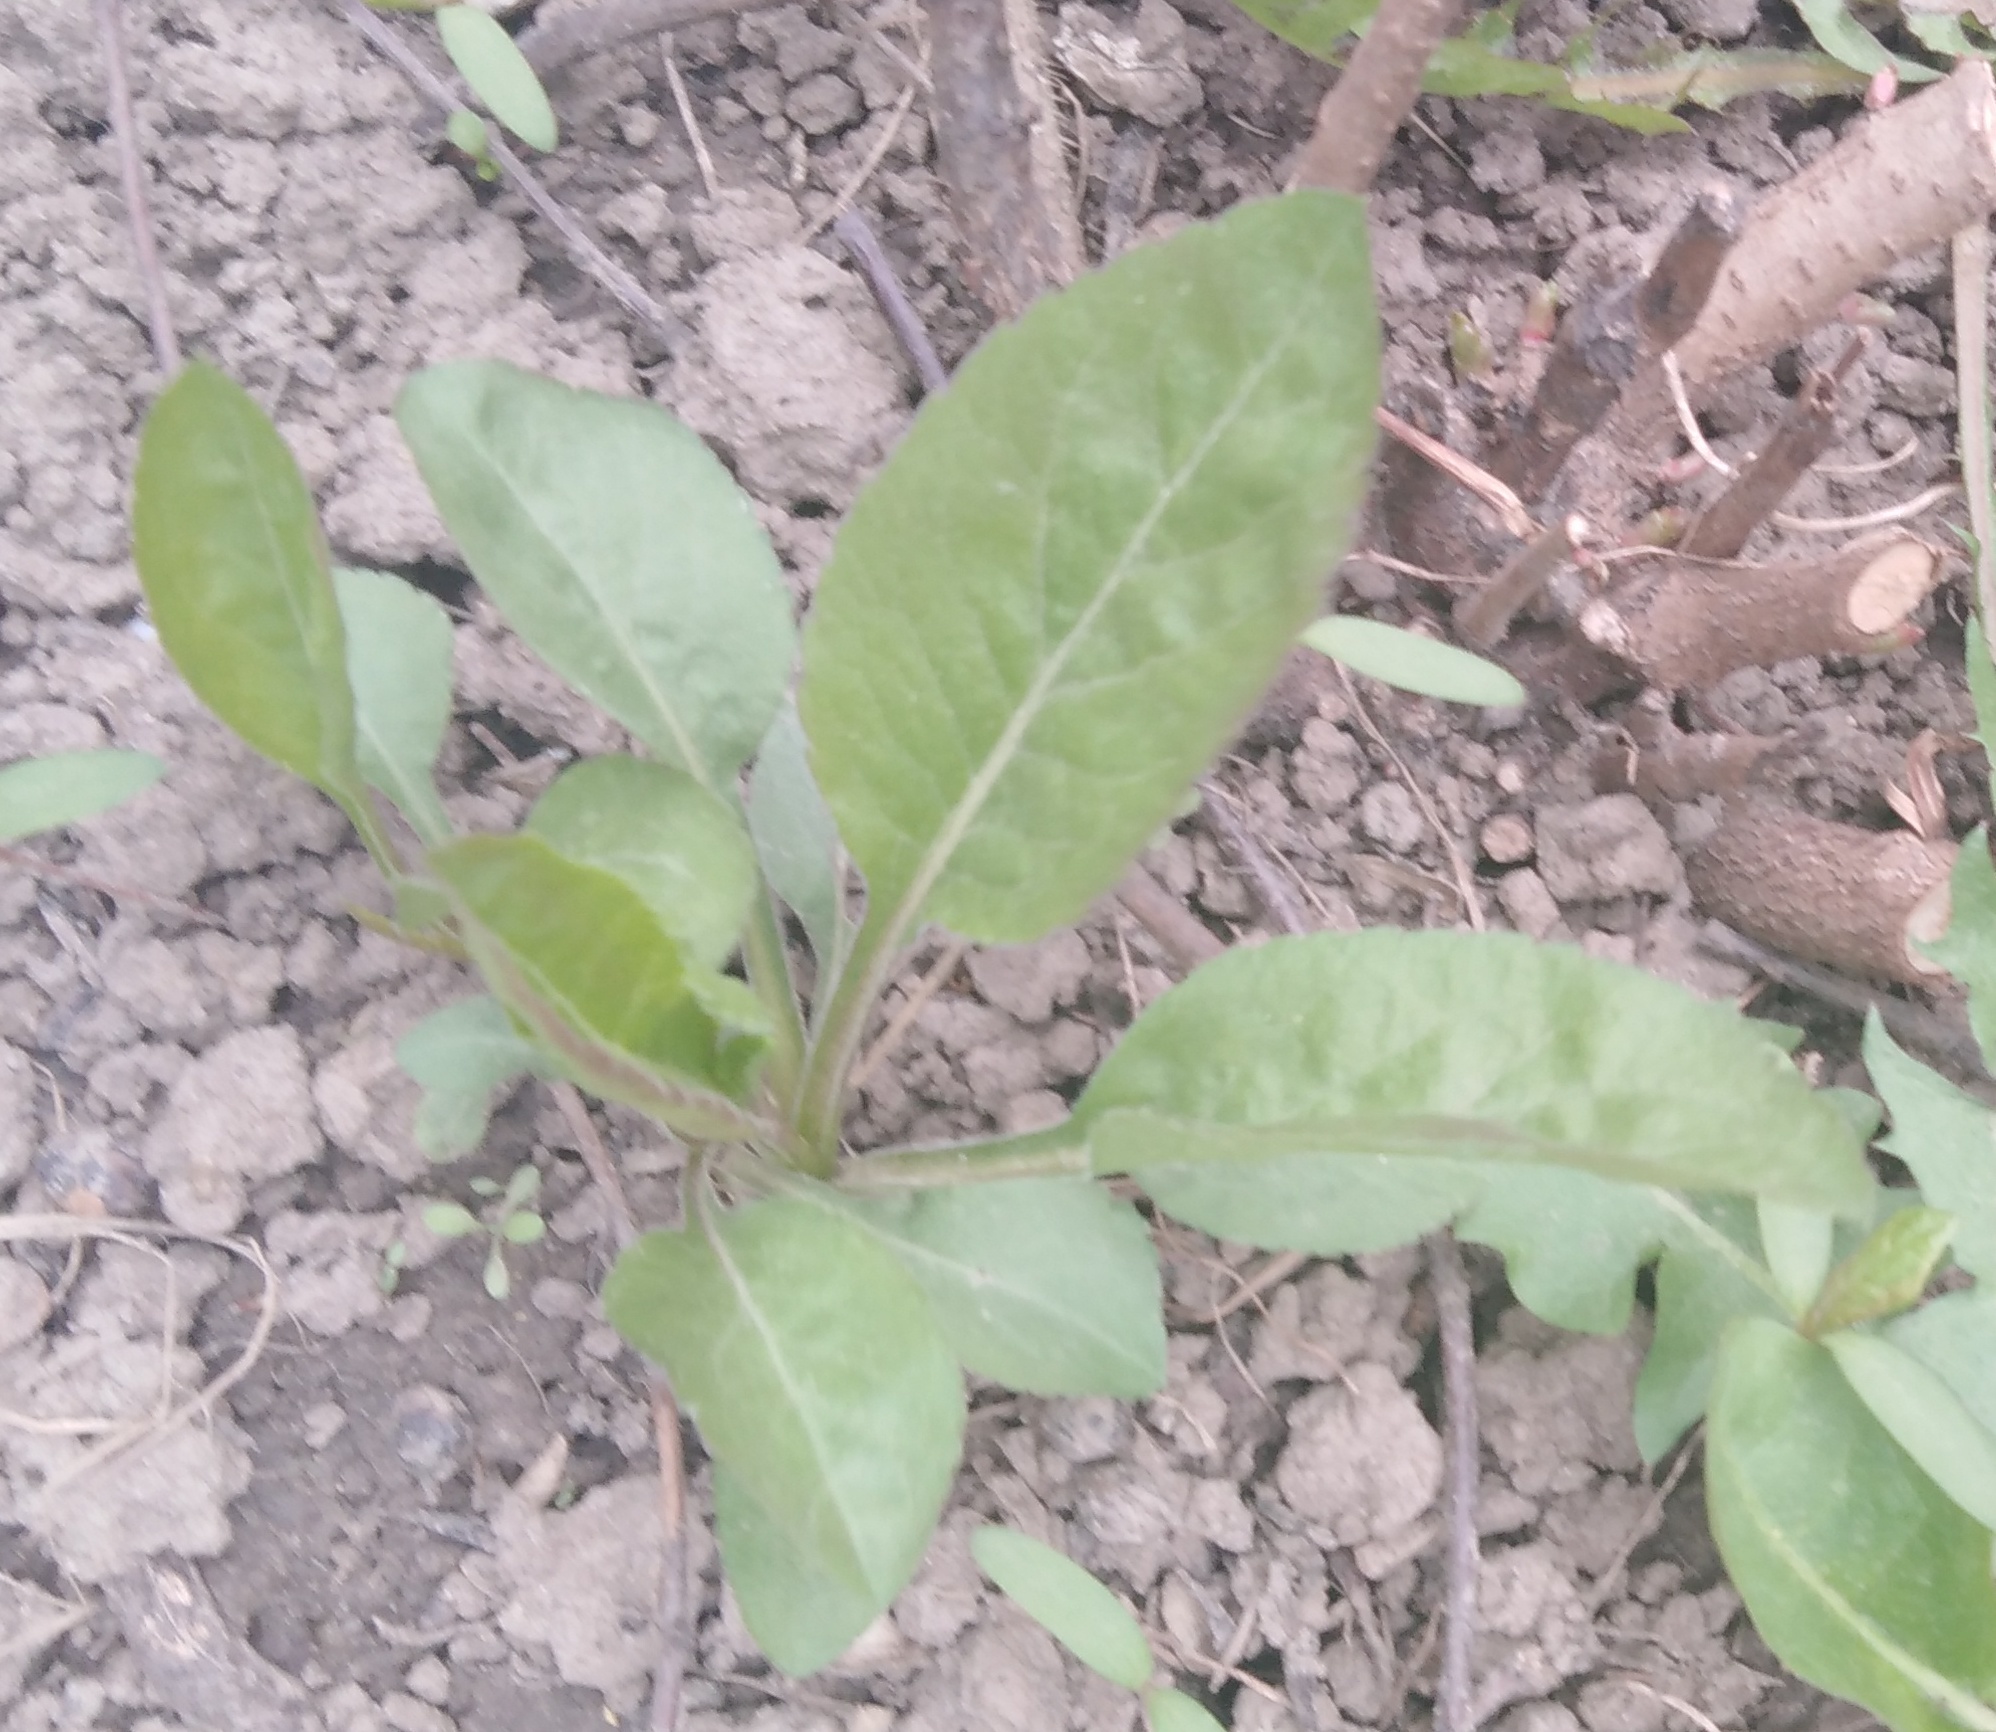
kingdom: Plantae
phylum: Tracheophyta
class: Magnoliopsida
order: Asterales
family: Asteraceae
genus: Solidago
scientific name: Solidago virgaurea
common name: Goldenrod
